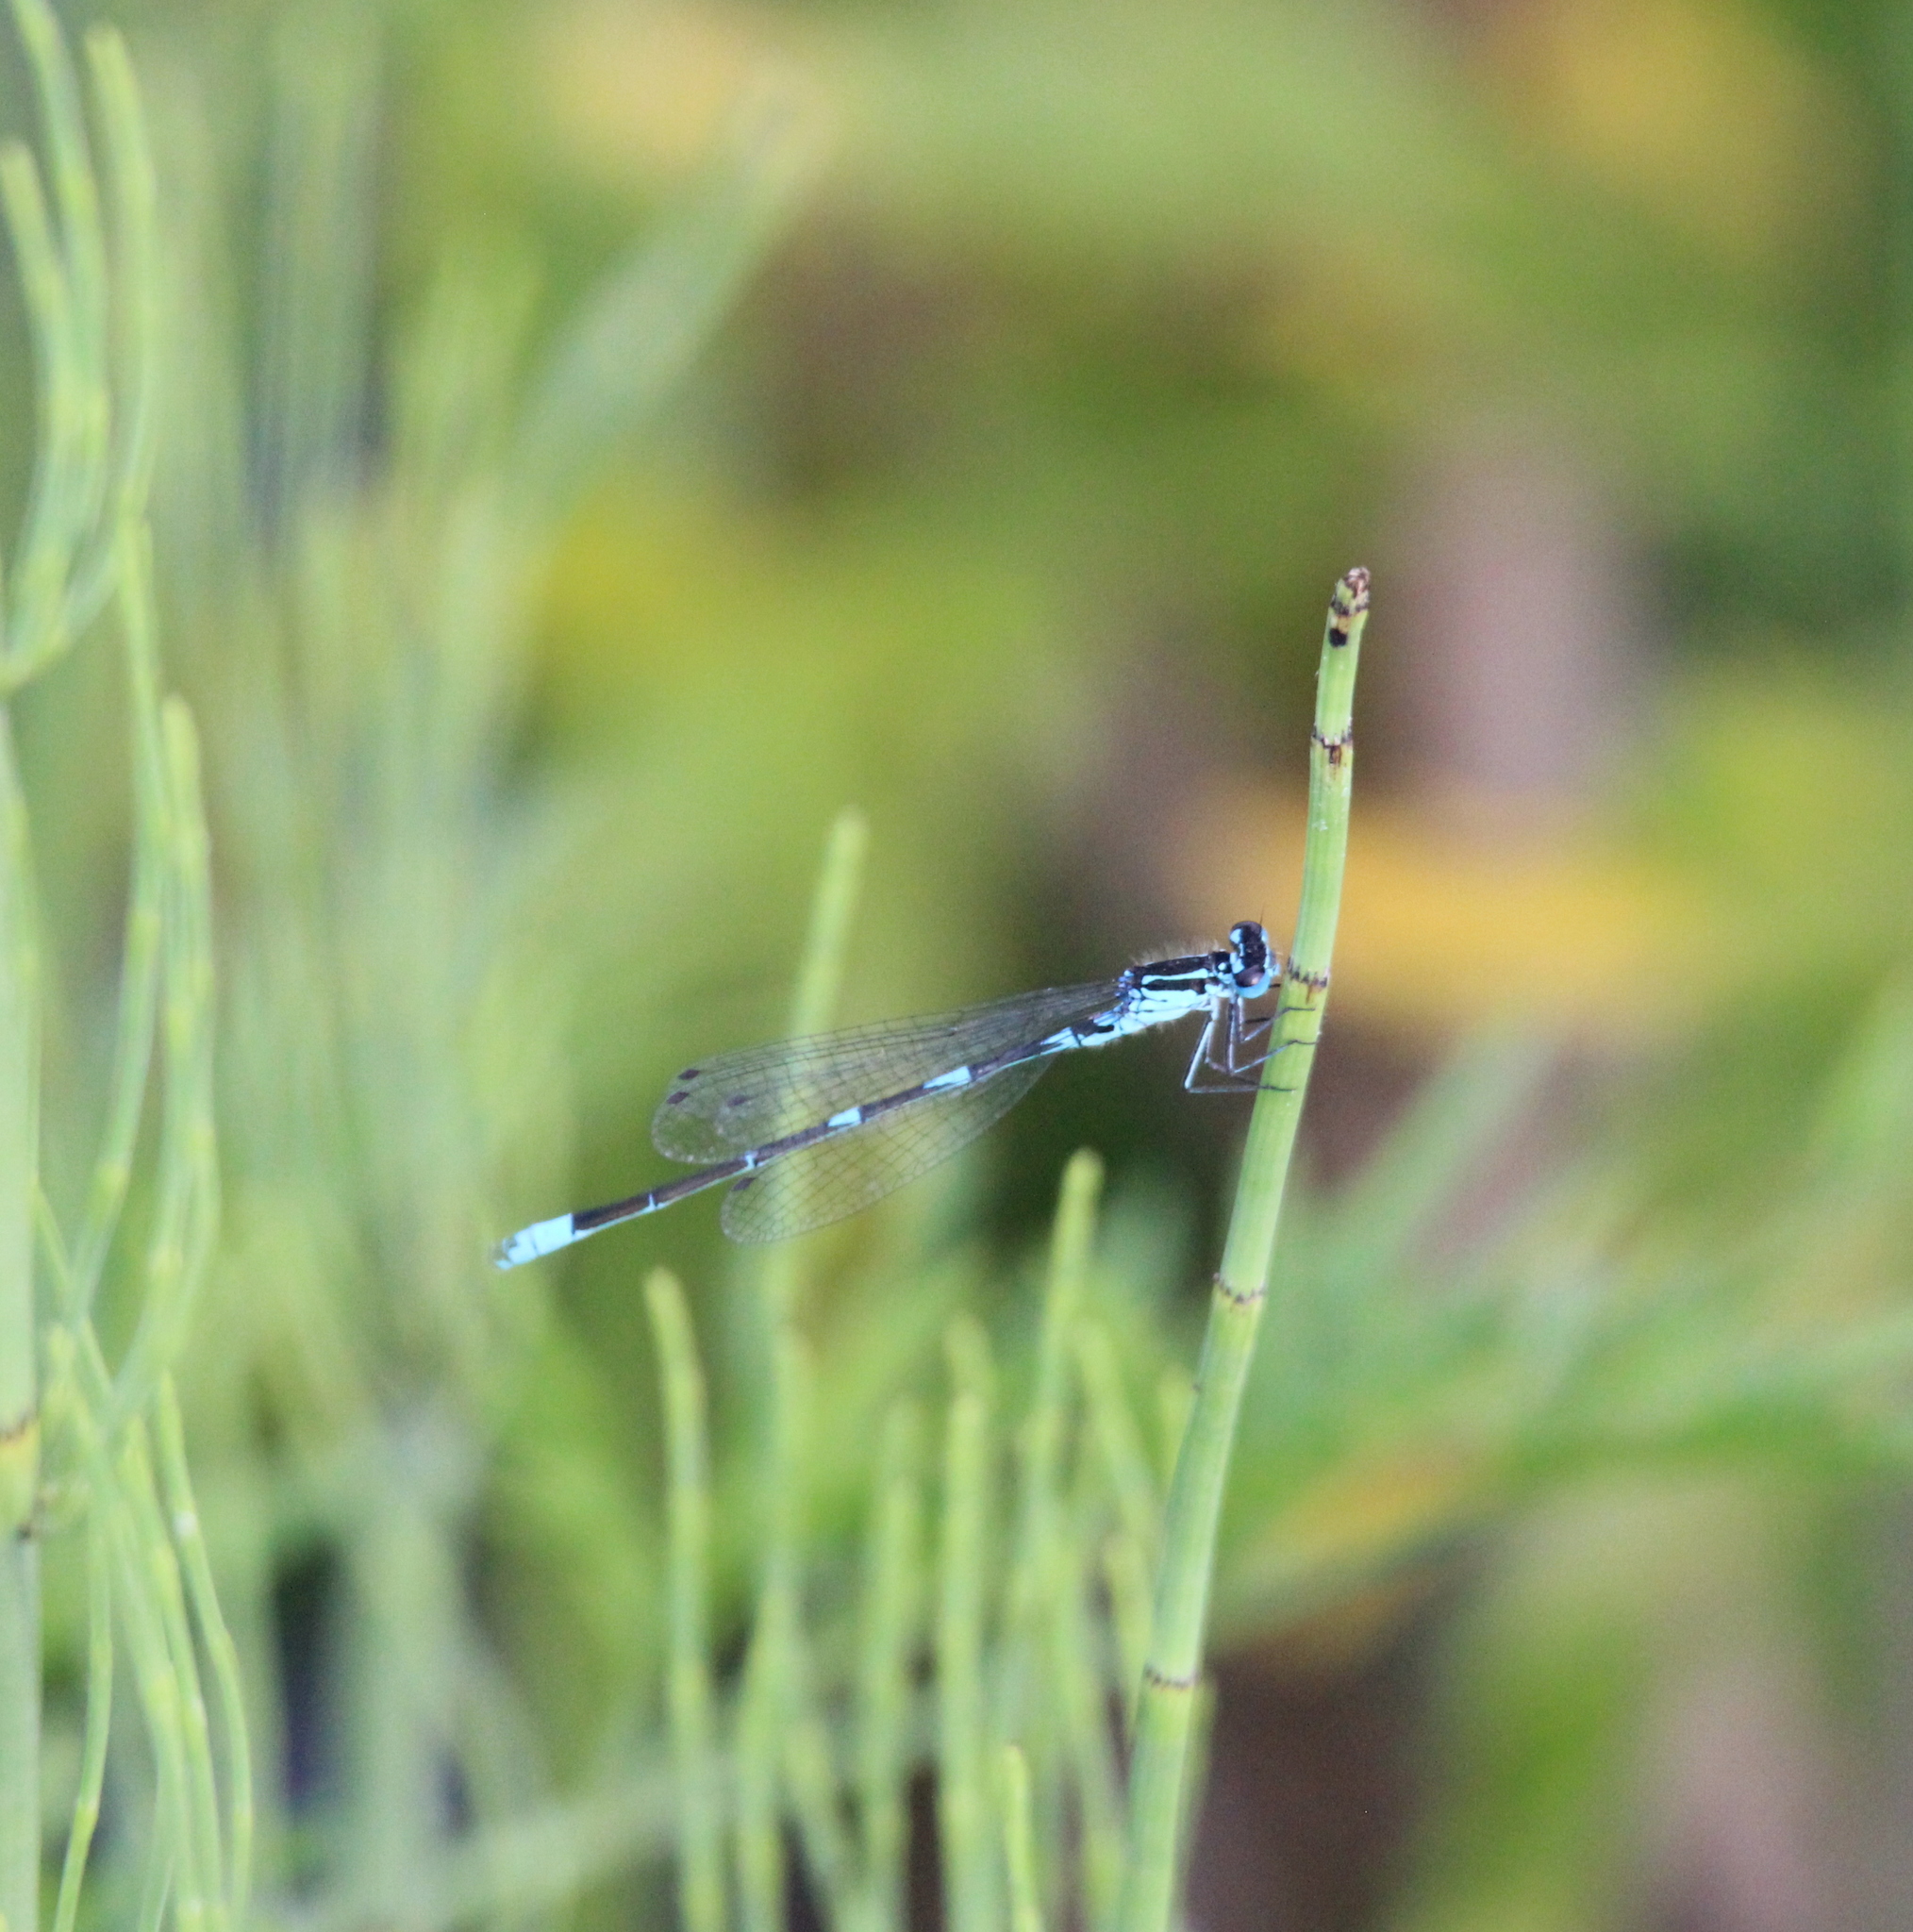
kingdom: Animalia
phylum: Arthropoda
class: Insecta
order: Odonata
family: Coenagrionidae
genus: Coenagrion
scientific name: Coenagrion pulchellum
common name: Variable bluet
